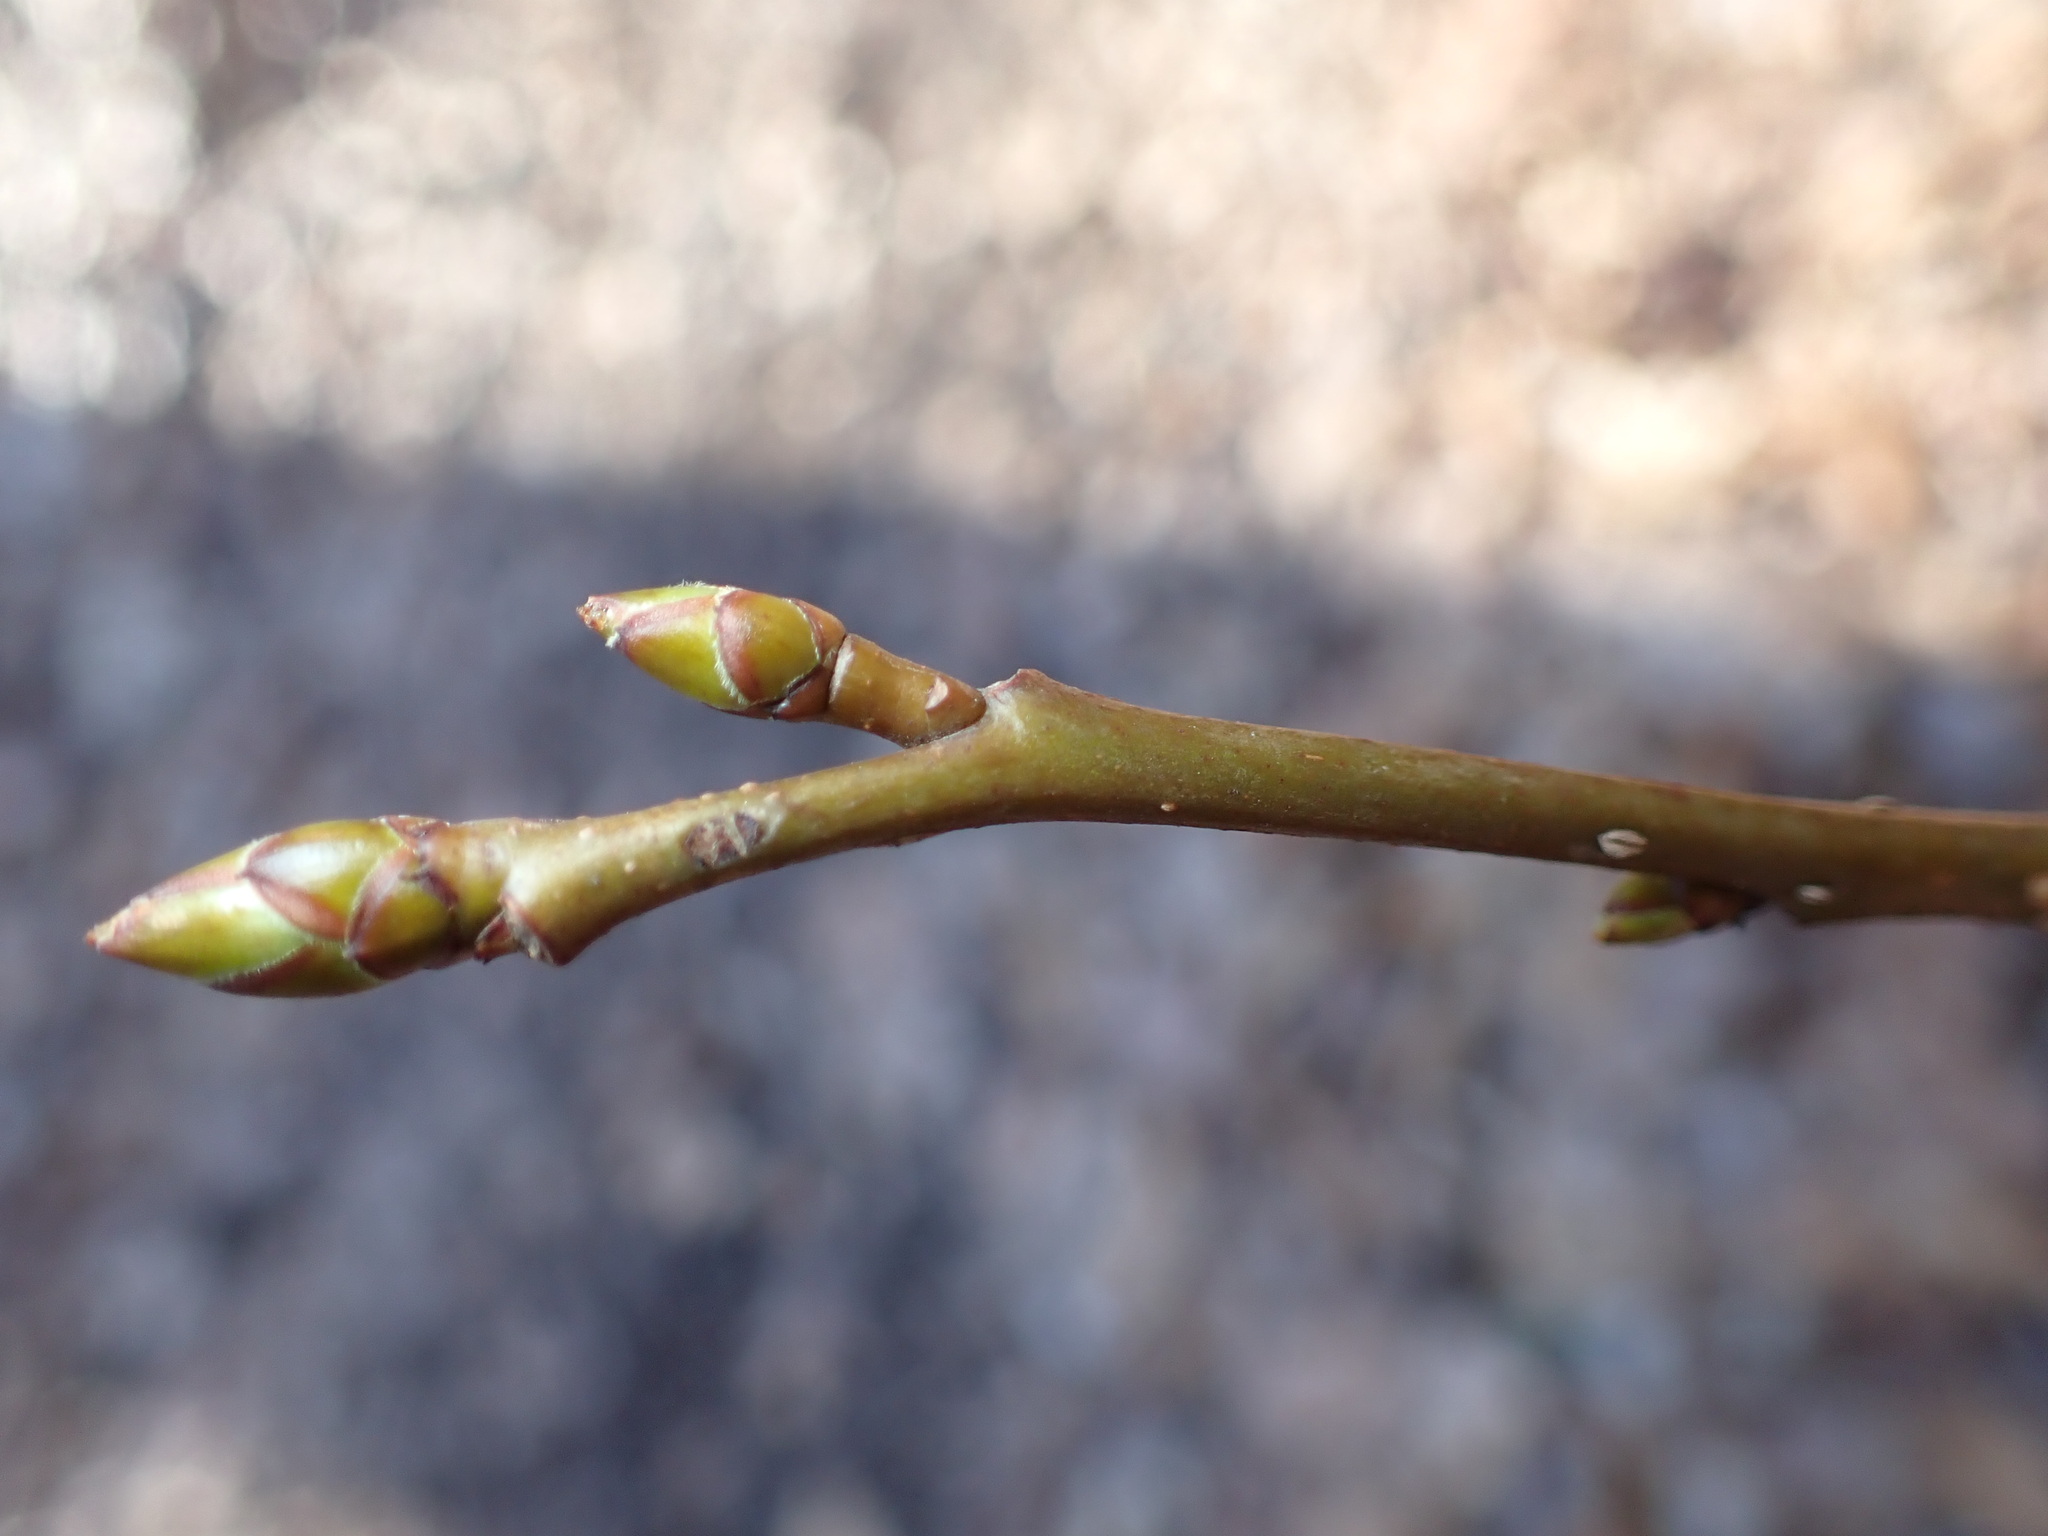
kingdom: Plantae
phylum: Tracheophyta
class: Magnoliopsida
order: Saxifragales
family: Altingiaceae
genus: Liquidambar
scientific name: Liquidambar styraciflua
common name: Sweet gum
